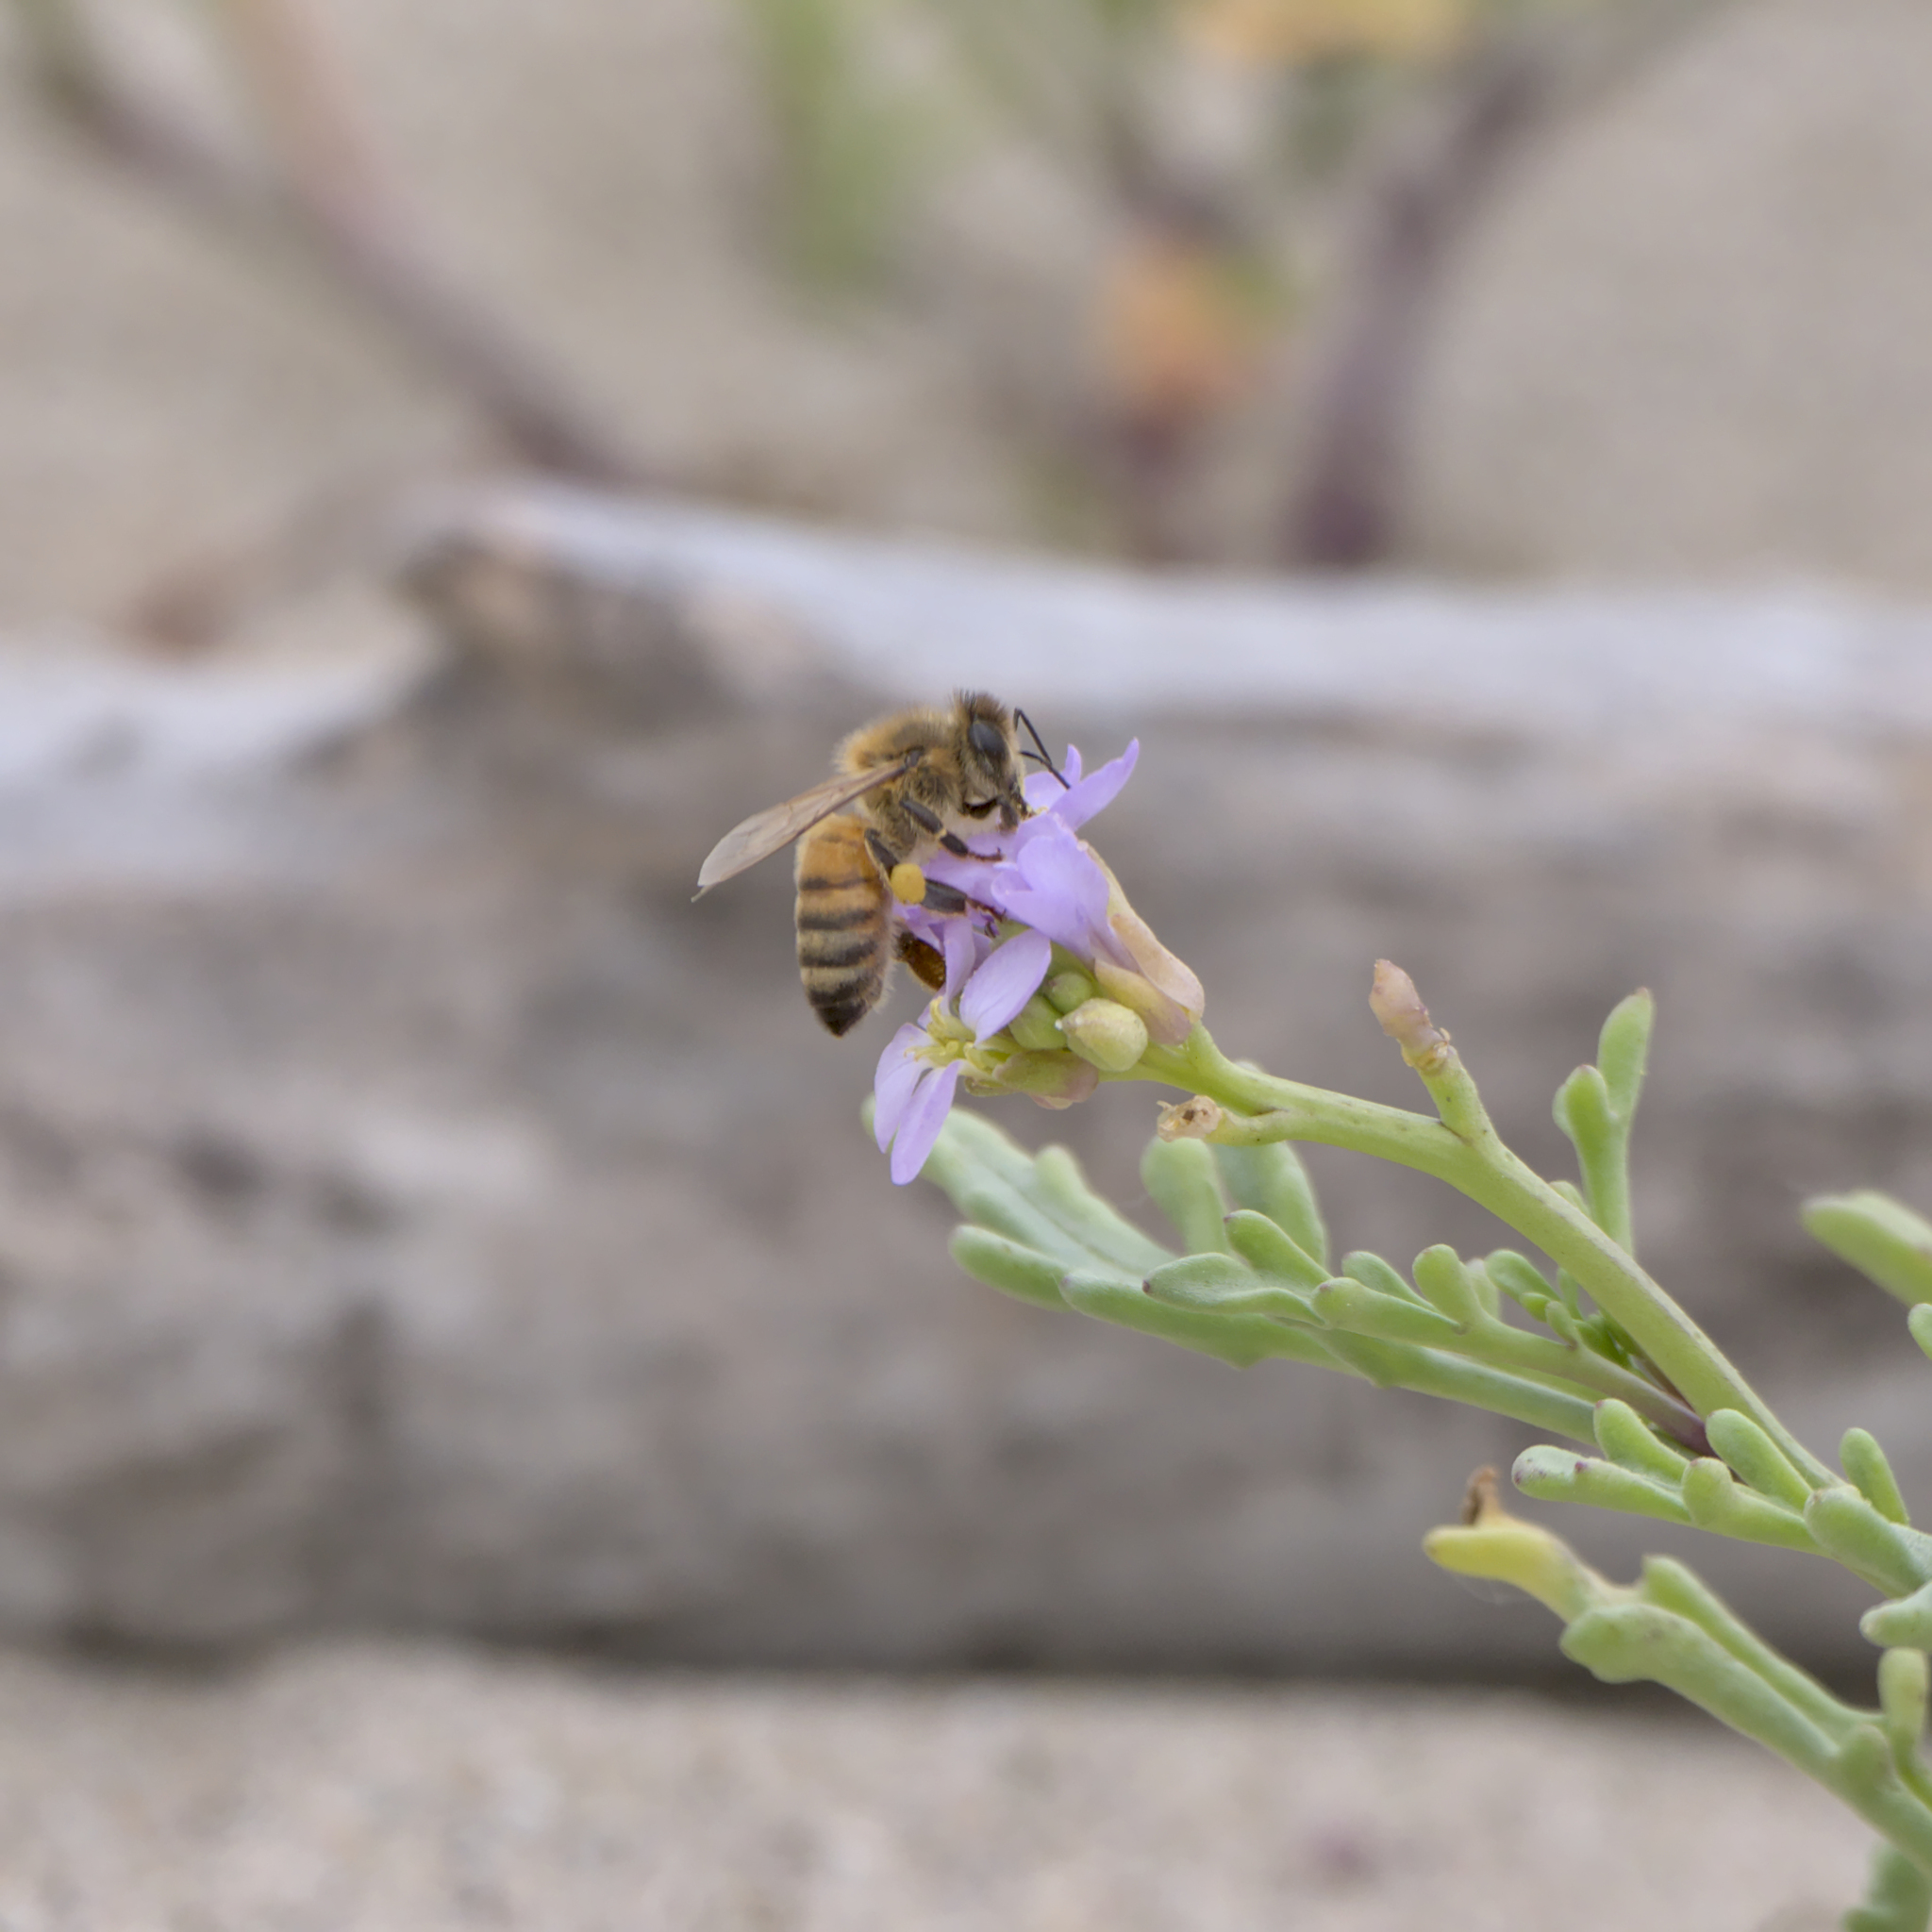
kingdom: Animalia
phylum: Arthropoda
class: Insecta
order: Hymenoptera
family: Apidae
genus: Apis
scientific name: Apis mellifera
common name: Honey bee
